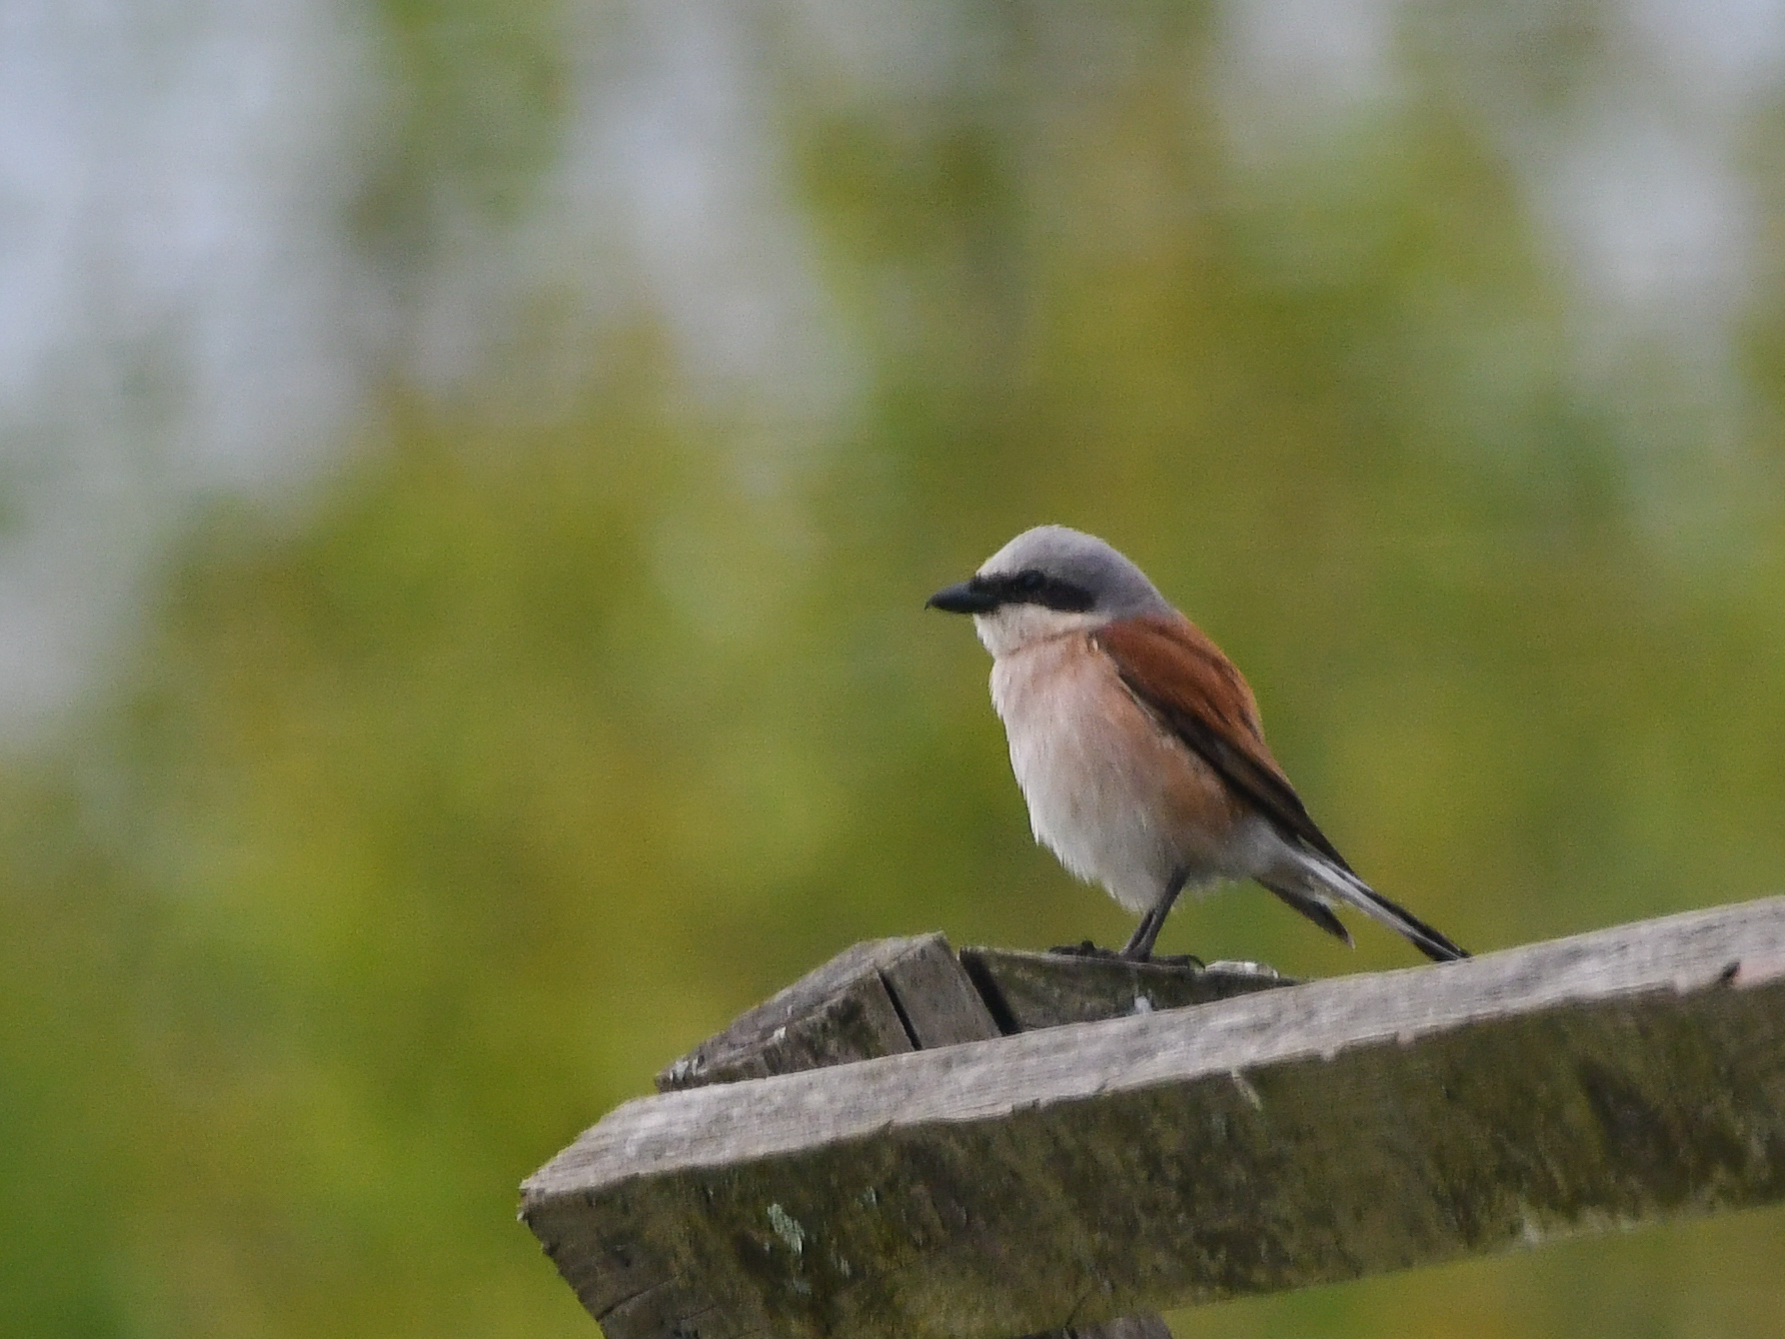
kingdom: Animalia
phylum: Chordata
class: Aves
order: Passeriformes
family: Laniidae
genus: Lanius
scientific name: Lanius collurio
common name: Red-backed shrike
